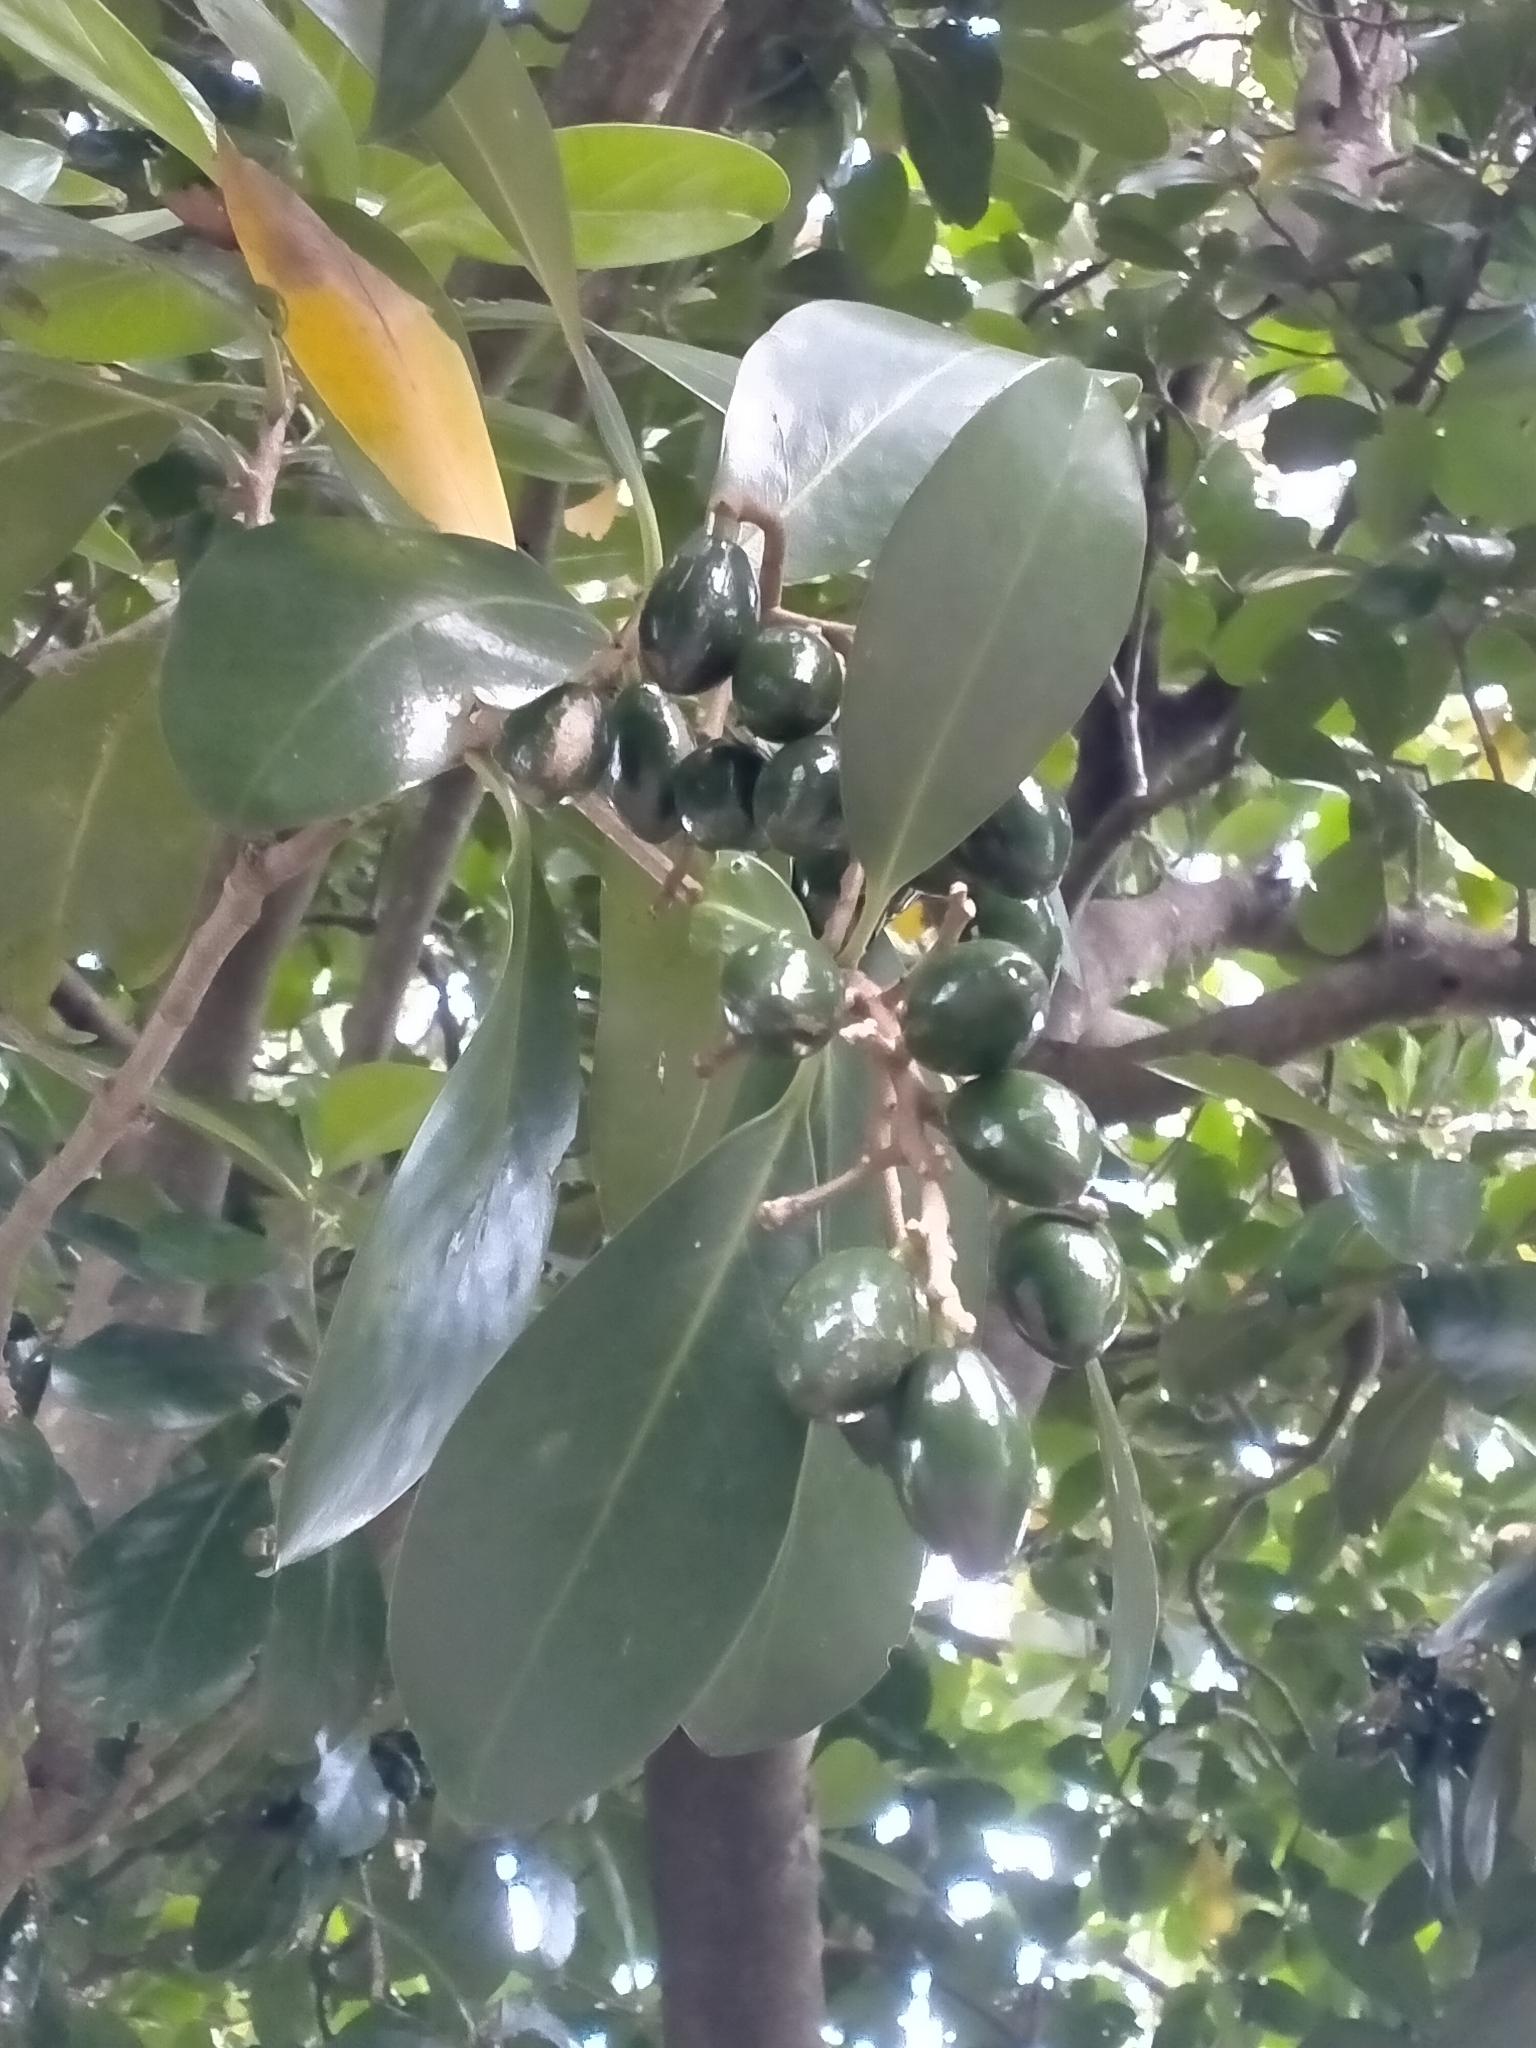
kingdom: Plantae
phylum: Tracheophyta
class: Magnoliopsida
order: Cucurbitales
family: Corynocarpaceae
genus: Corynocarpus
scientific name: Corynocarpus laevigatus
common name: New zealand laurel
